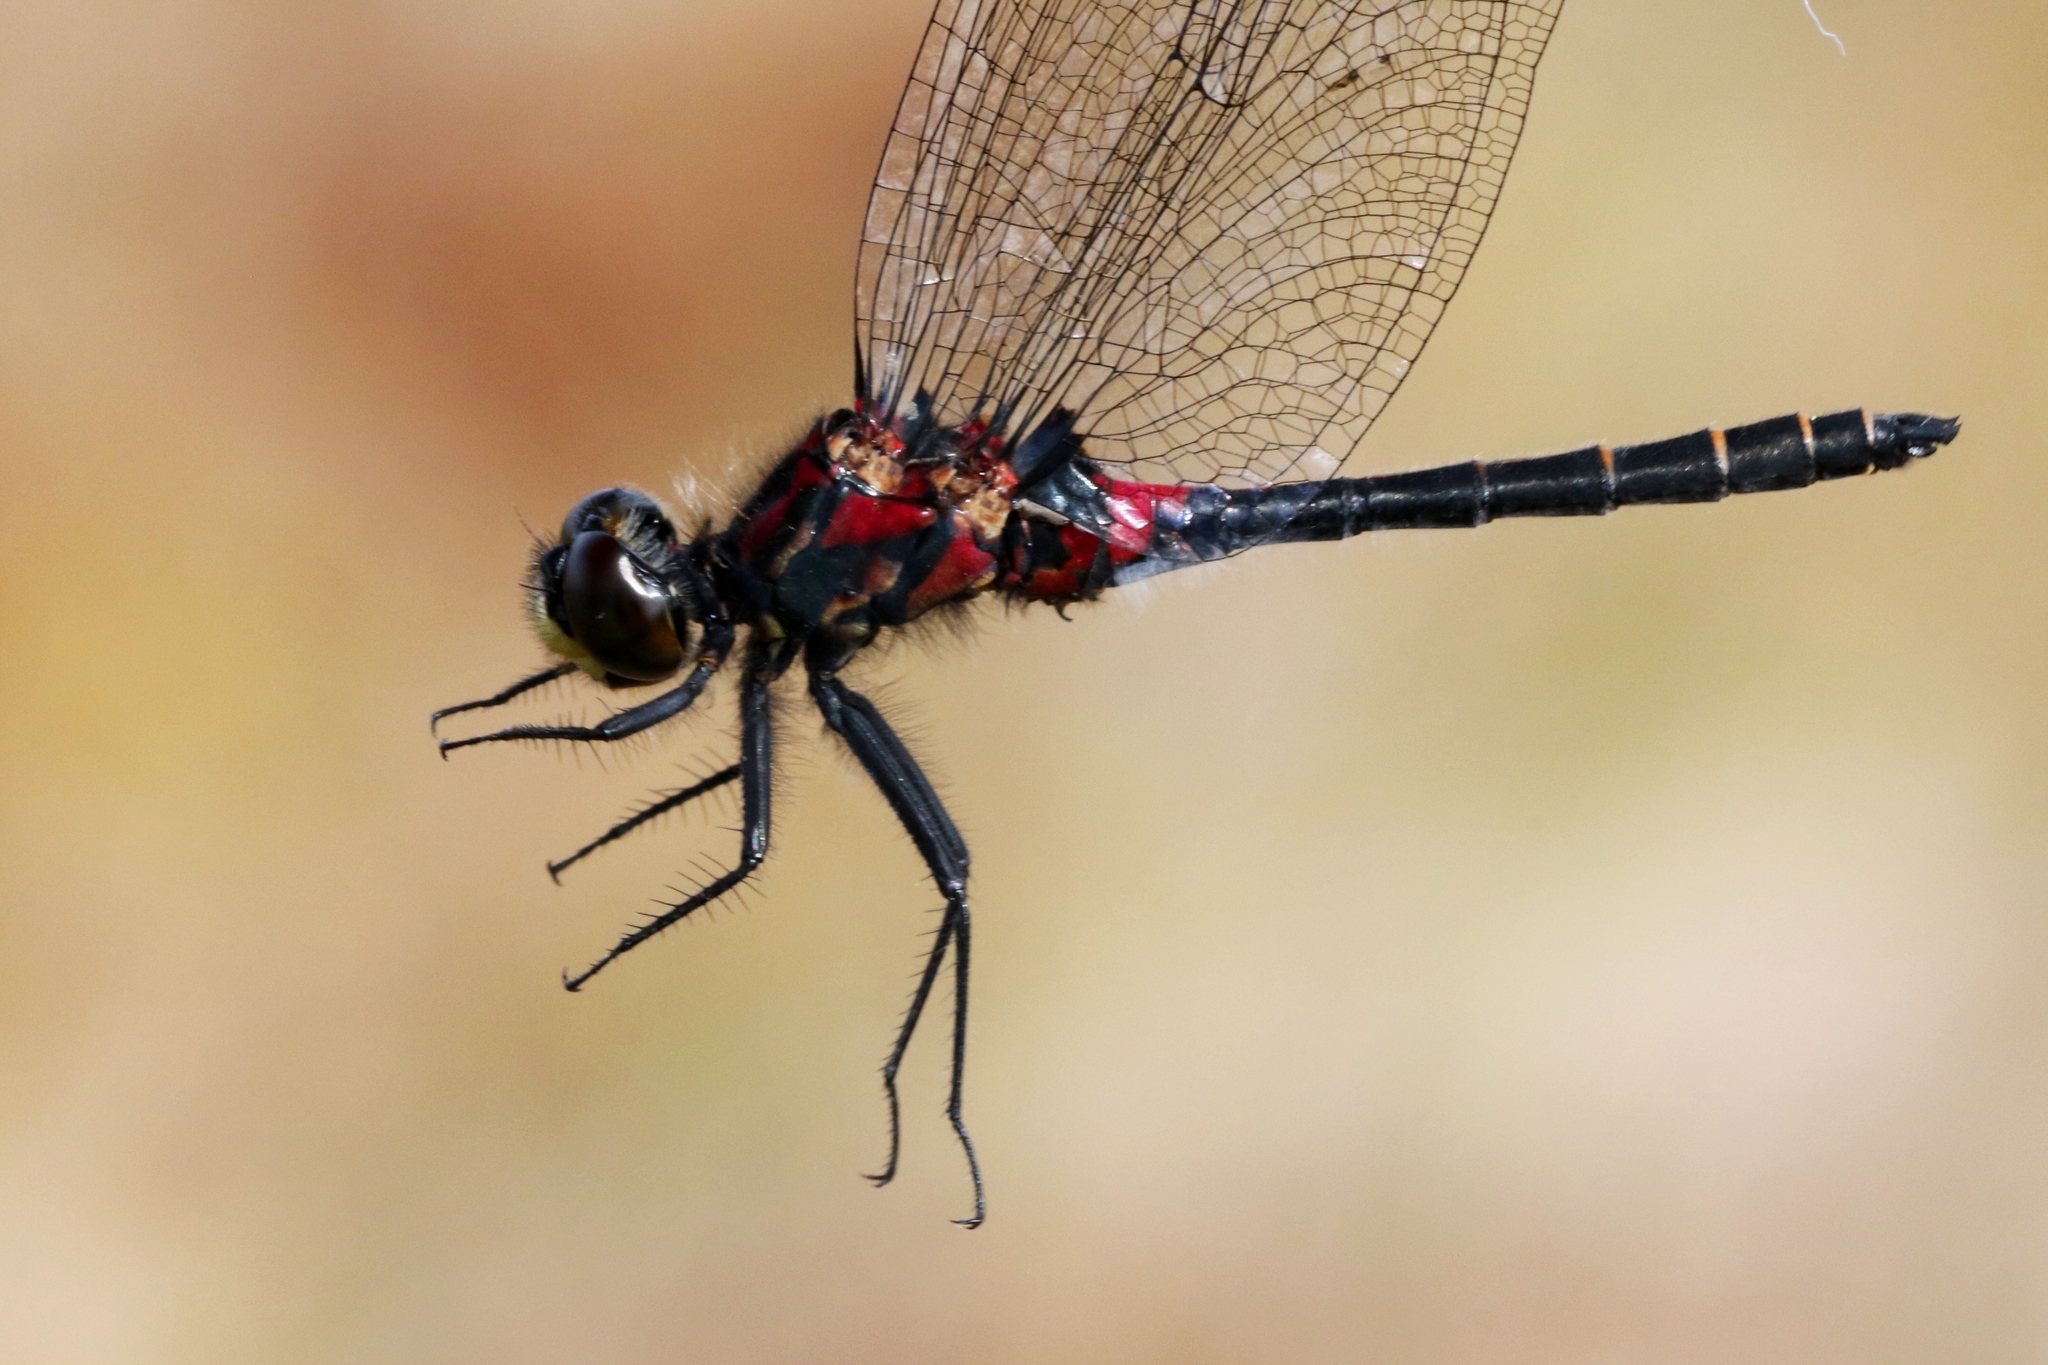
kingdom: Animalia
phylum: Arthropoda
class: Insecta
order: Odonata
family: Libellulidae
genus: Leucorrhinia
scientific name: Leucorrhinia patricia
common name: Canada whiteface
